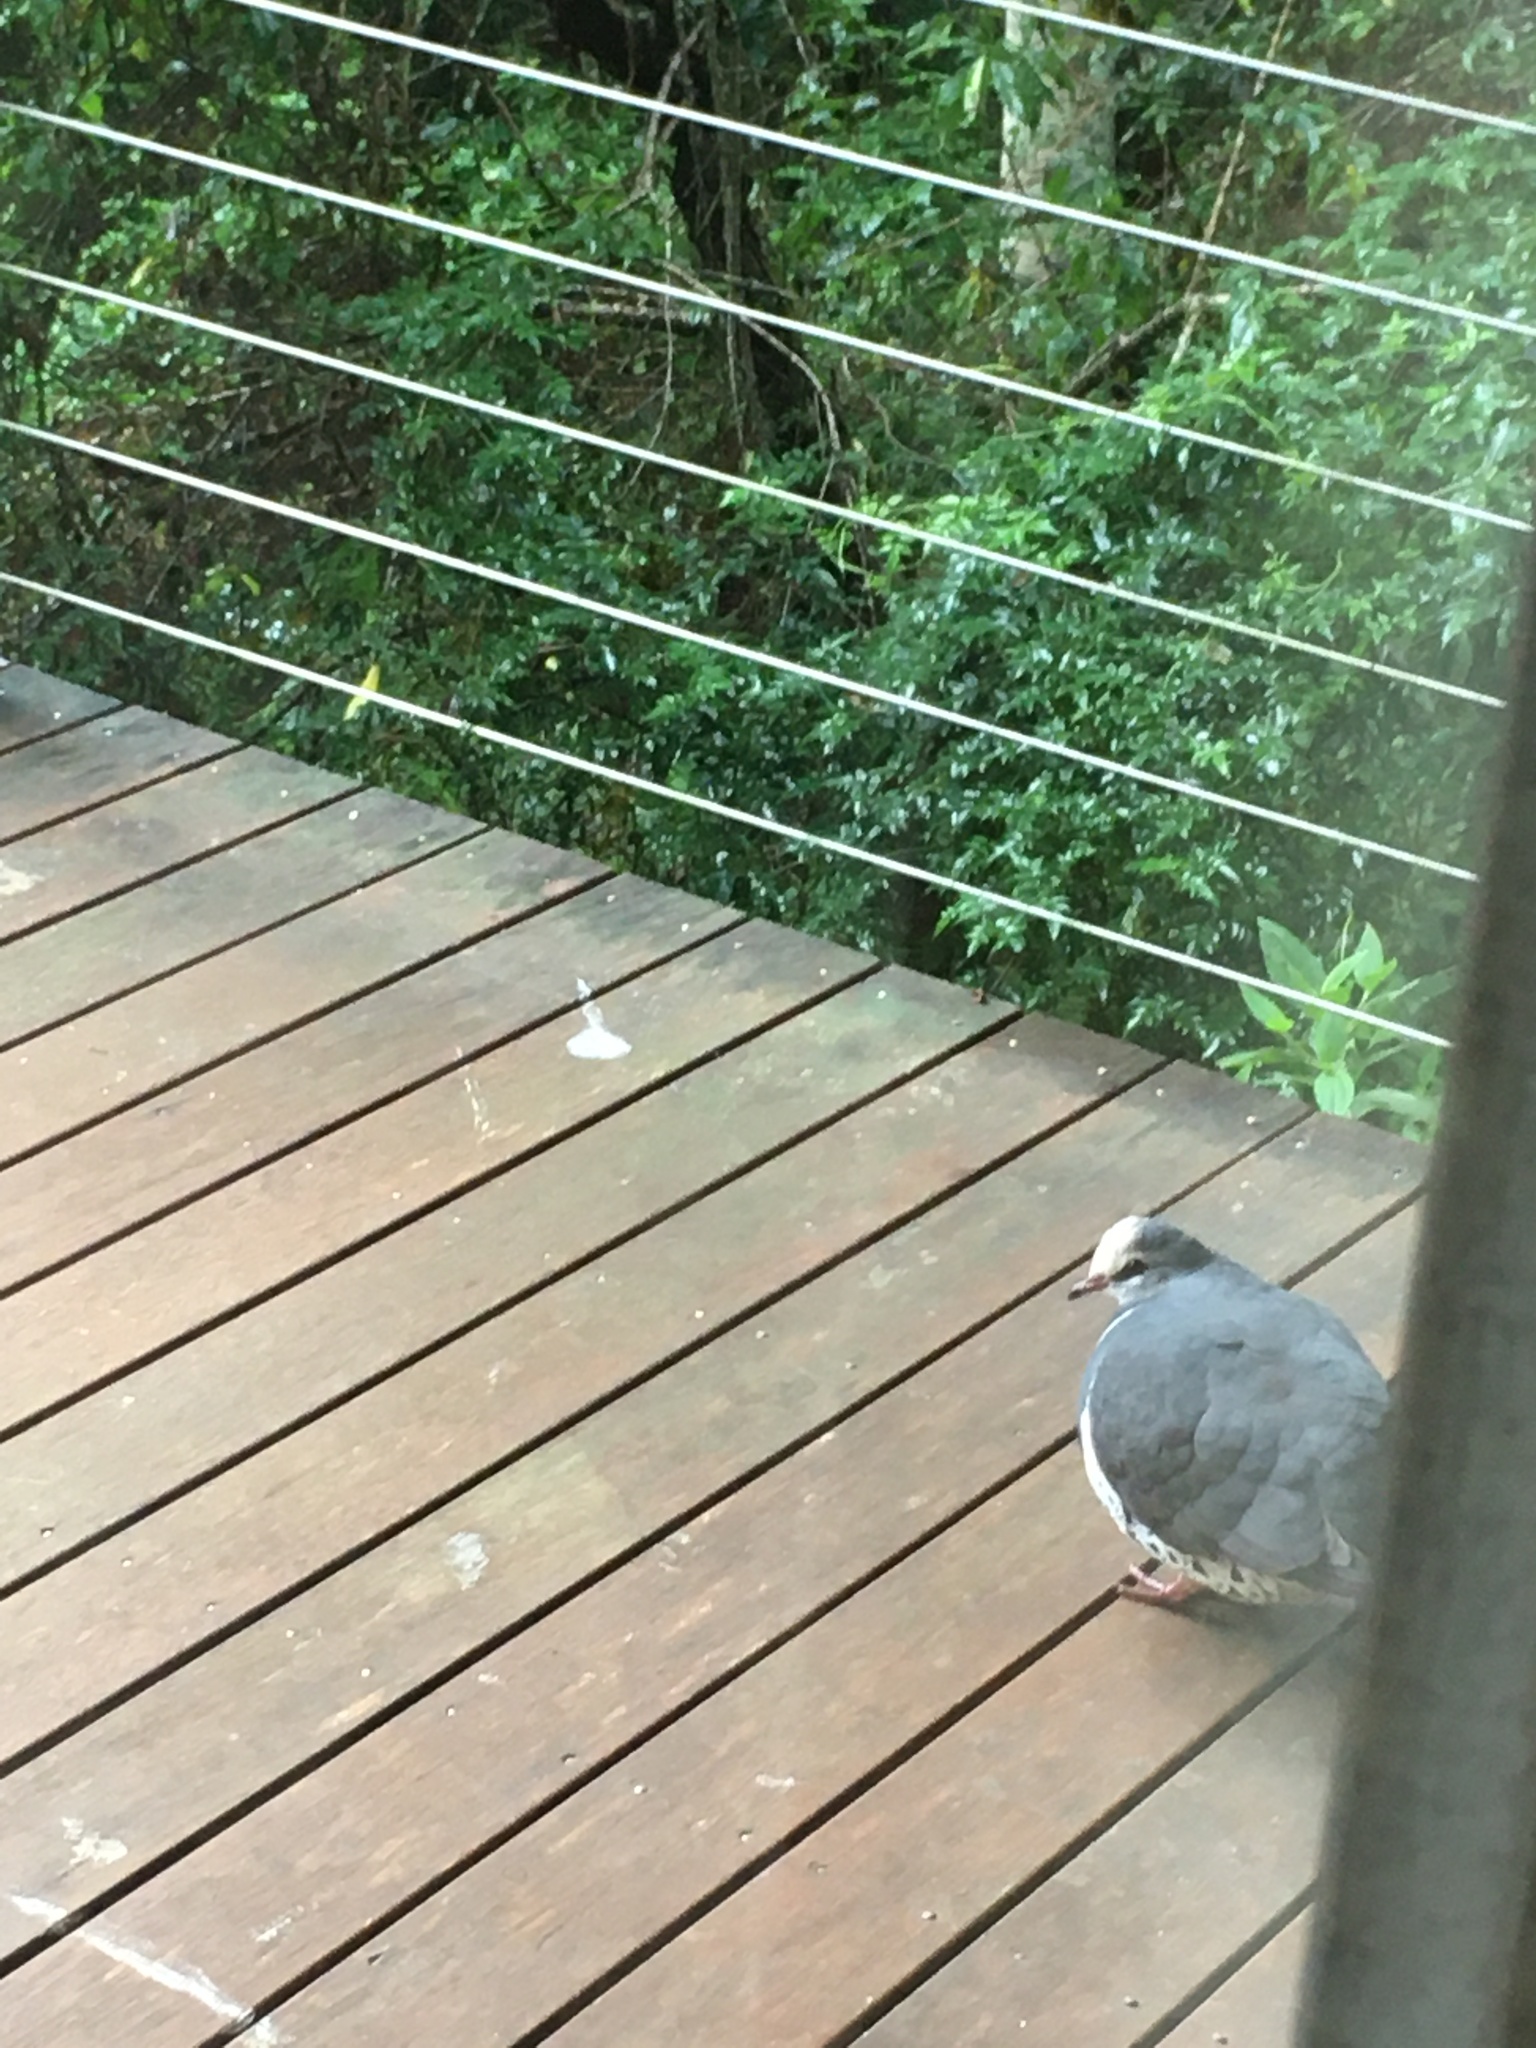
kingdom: Animalia
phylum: Chordata
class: Aves
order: Columbiformes
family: Columbidae
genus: Leucosarcia
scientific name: Leucosarcia melanoleuca
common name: Wonga pigeon
